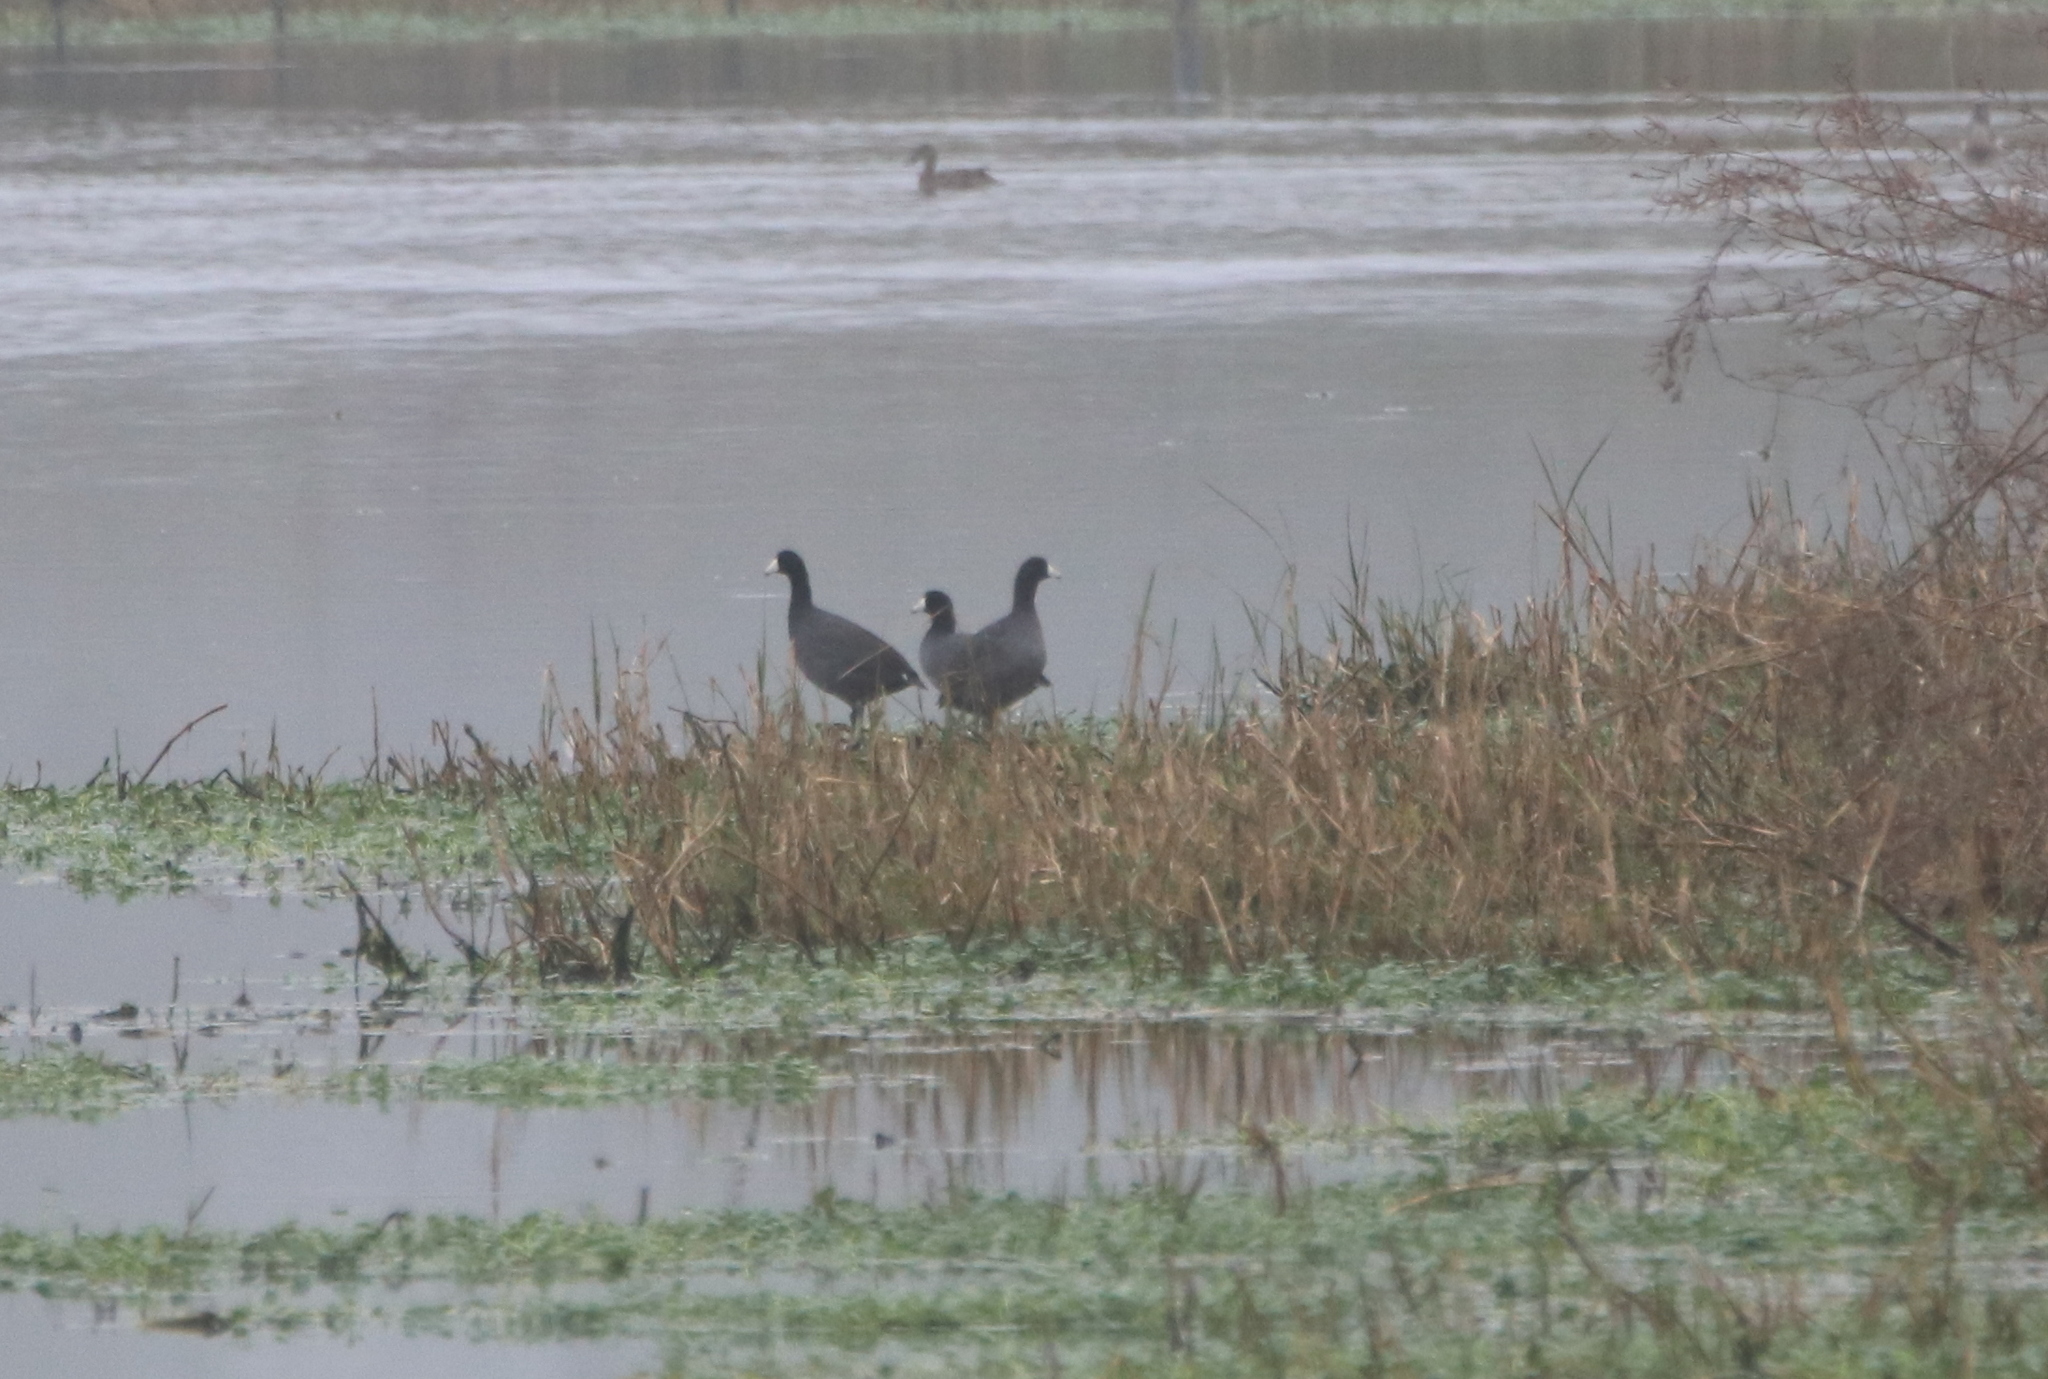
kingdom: Animalia
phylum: Chordata
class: Aves
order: Gruiformes
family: Rallidae
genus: Fulica
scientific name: Fulica americana
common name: American coot
